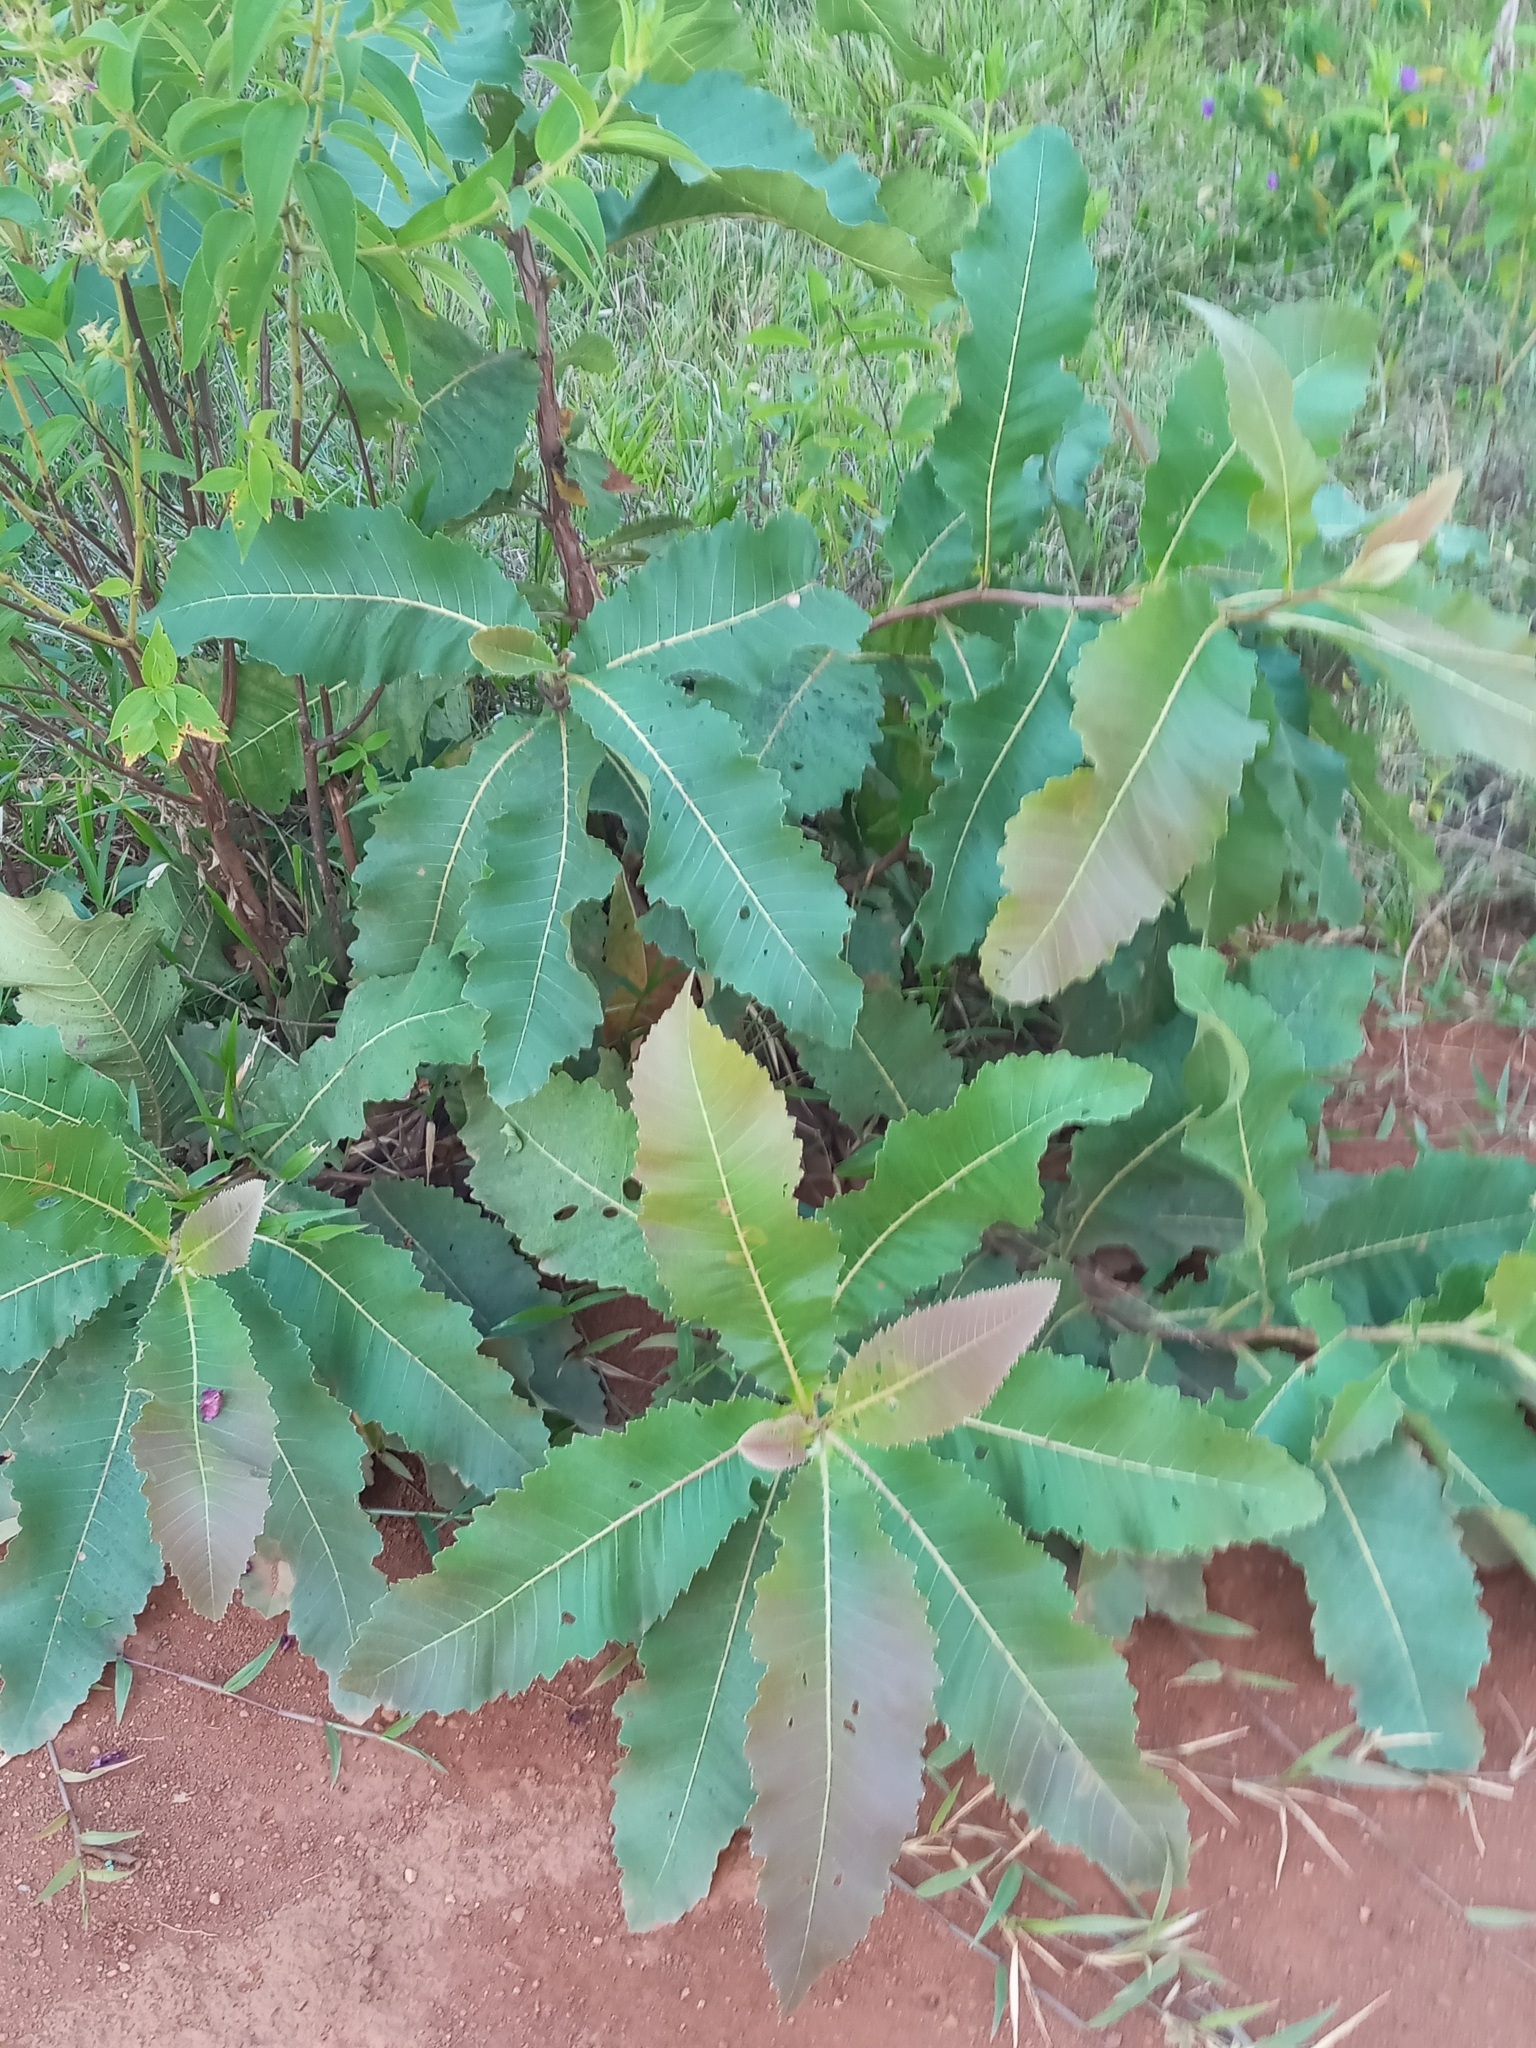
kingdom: Plantae
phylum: Tracheophyta
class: Magnoliopsida
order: Dilleniales
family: Dilleniaceae
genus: Curatella
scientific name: Curatella americana
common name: Sandpaper tree
